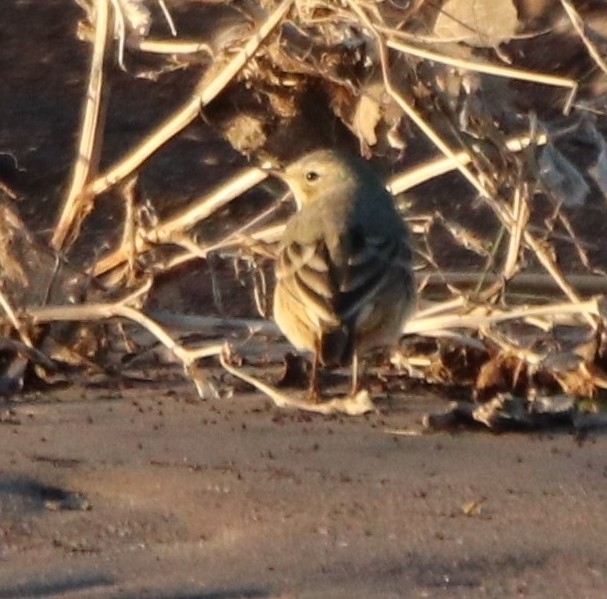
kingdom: Animalia
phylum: Chordata
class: Aves
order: Passeriformes
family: Motacillidae
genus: Anthus
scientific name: Anthus rubescens
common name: Buff-bellied pipit
